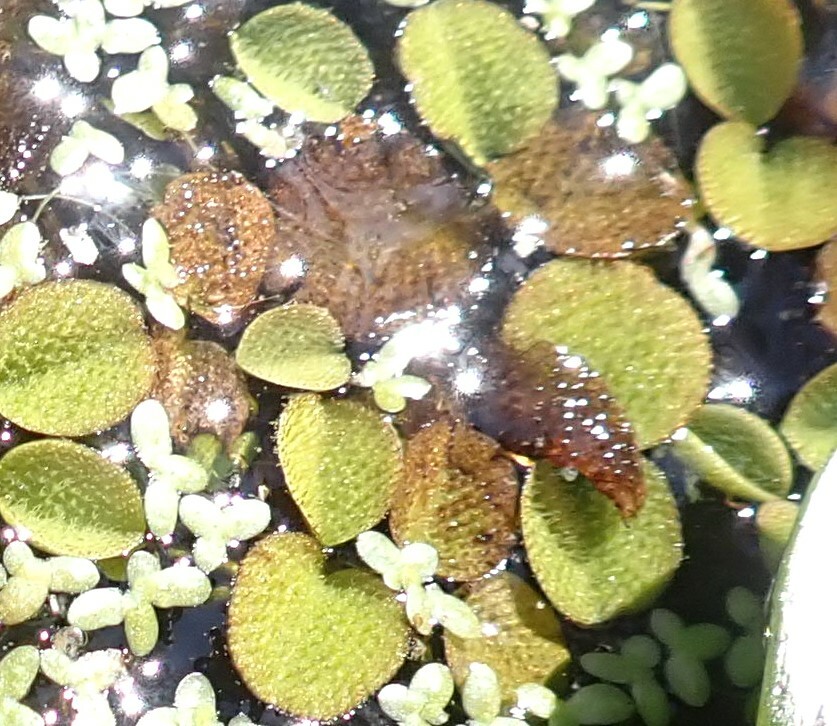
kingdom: Plantae
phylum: Tracheophyta
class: Polypodiopsida
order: Salviniales
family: Salviniaceae
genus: Salvinia
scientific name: Salvinia minima
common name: Water spangles
